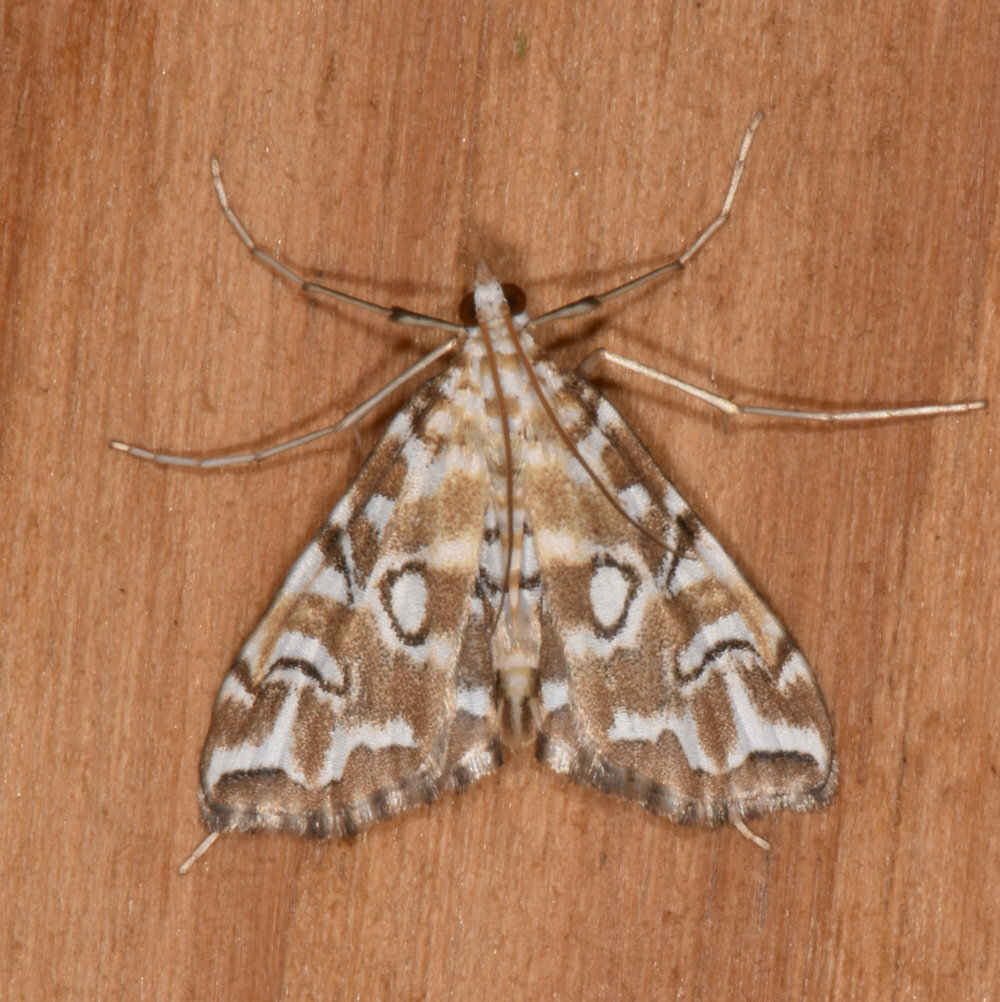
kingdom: Animalia
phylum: Arthropoda
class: Insecta
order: Lepidoptera
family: Crambidae
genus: Elophila
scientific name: Elophila icciusalis
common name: Pondside pyralid moth
